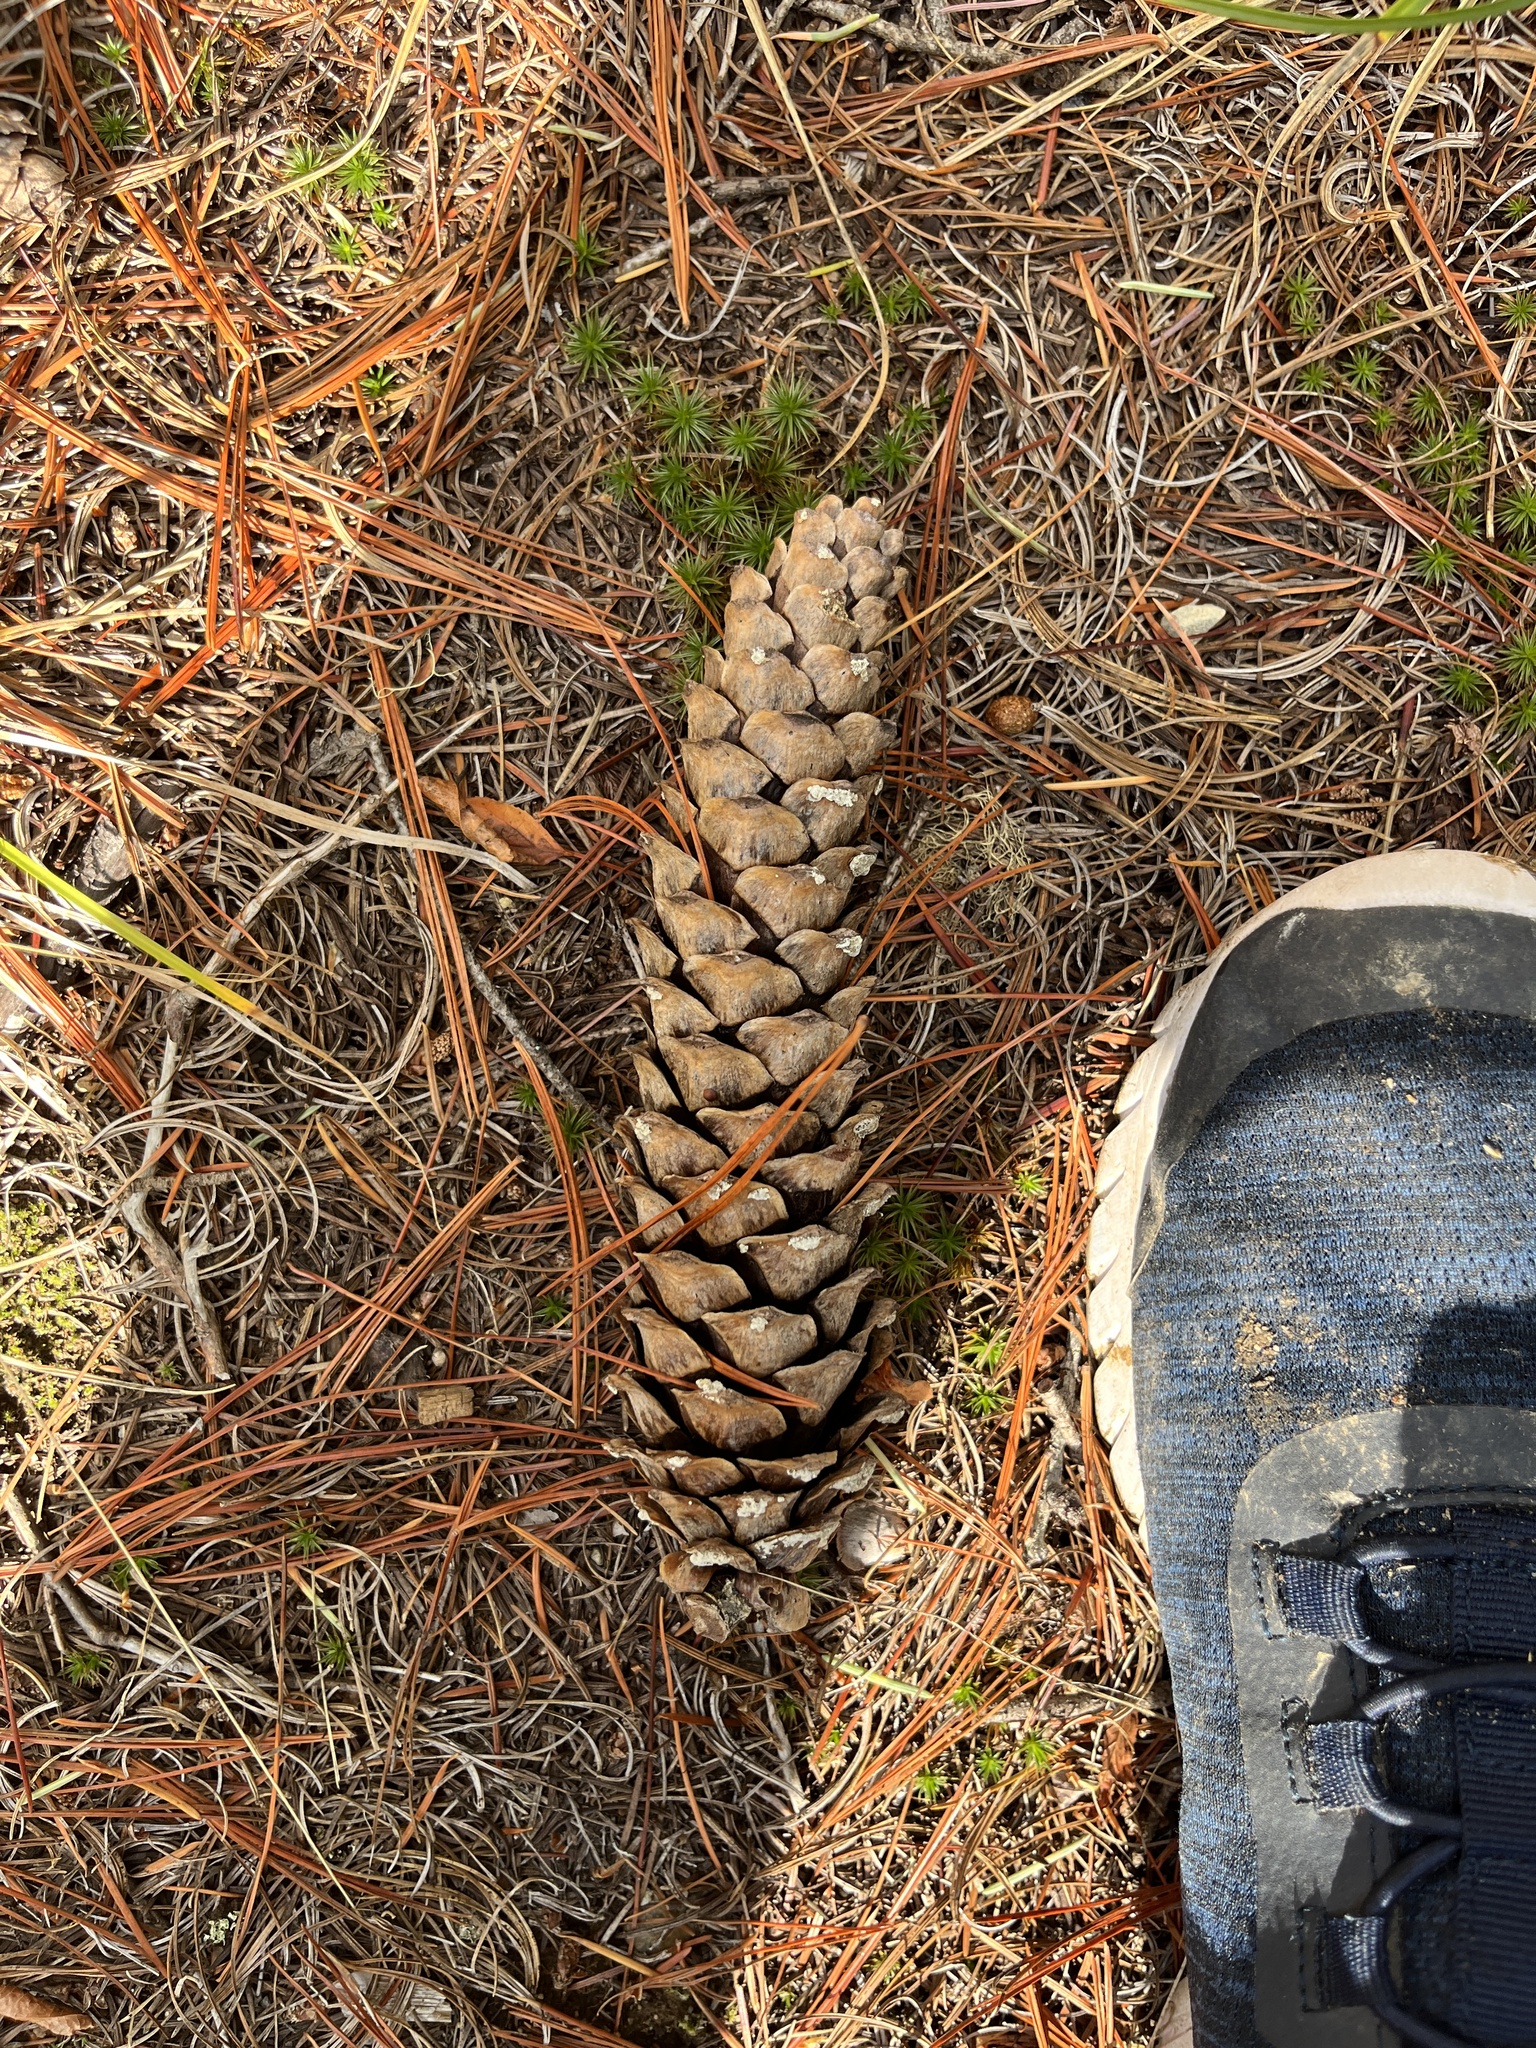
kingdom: Plantae
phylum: Tracheophyta
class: Pinopsida
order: Pinales
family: Pinaceae
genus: Pinus
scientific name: Pinus monticola
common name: Western white pine
